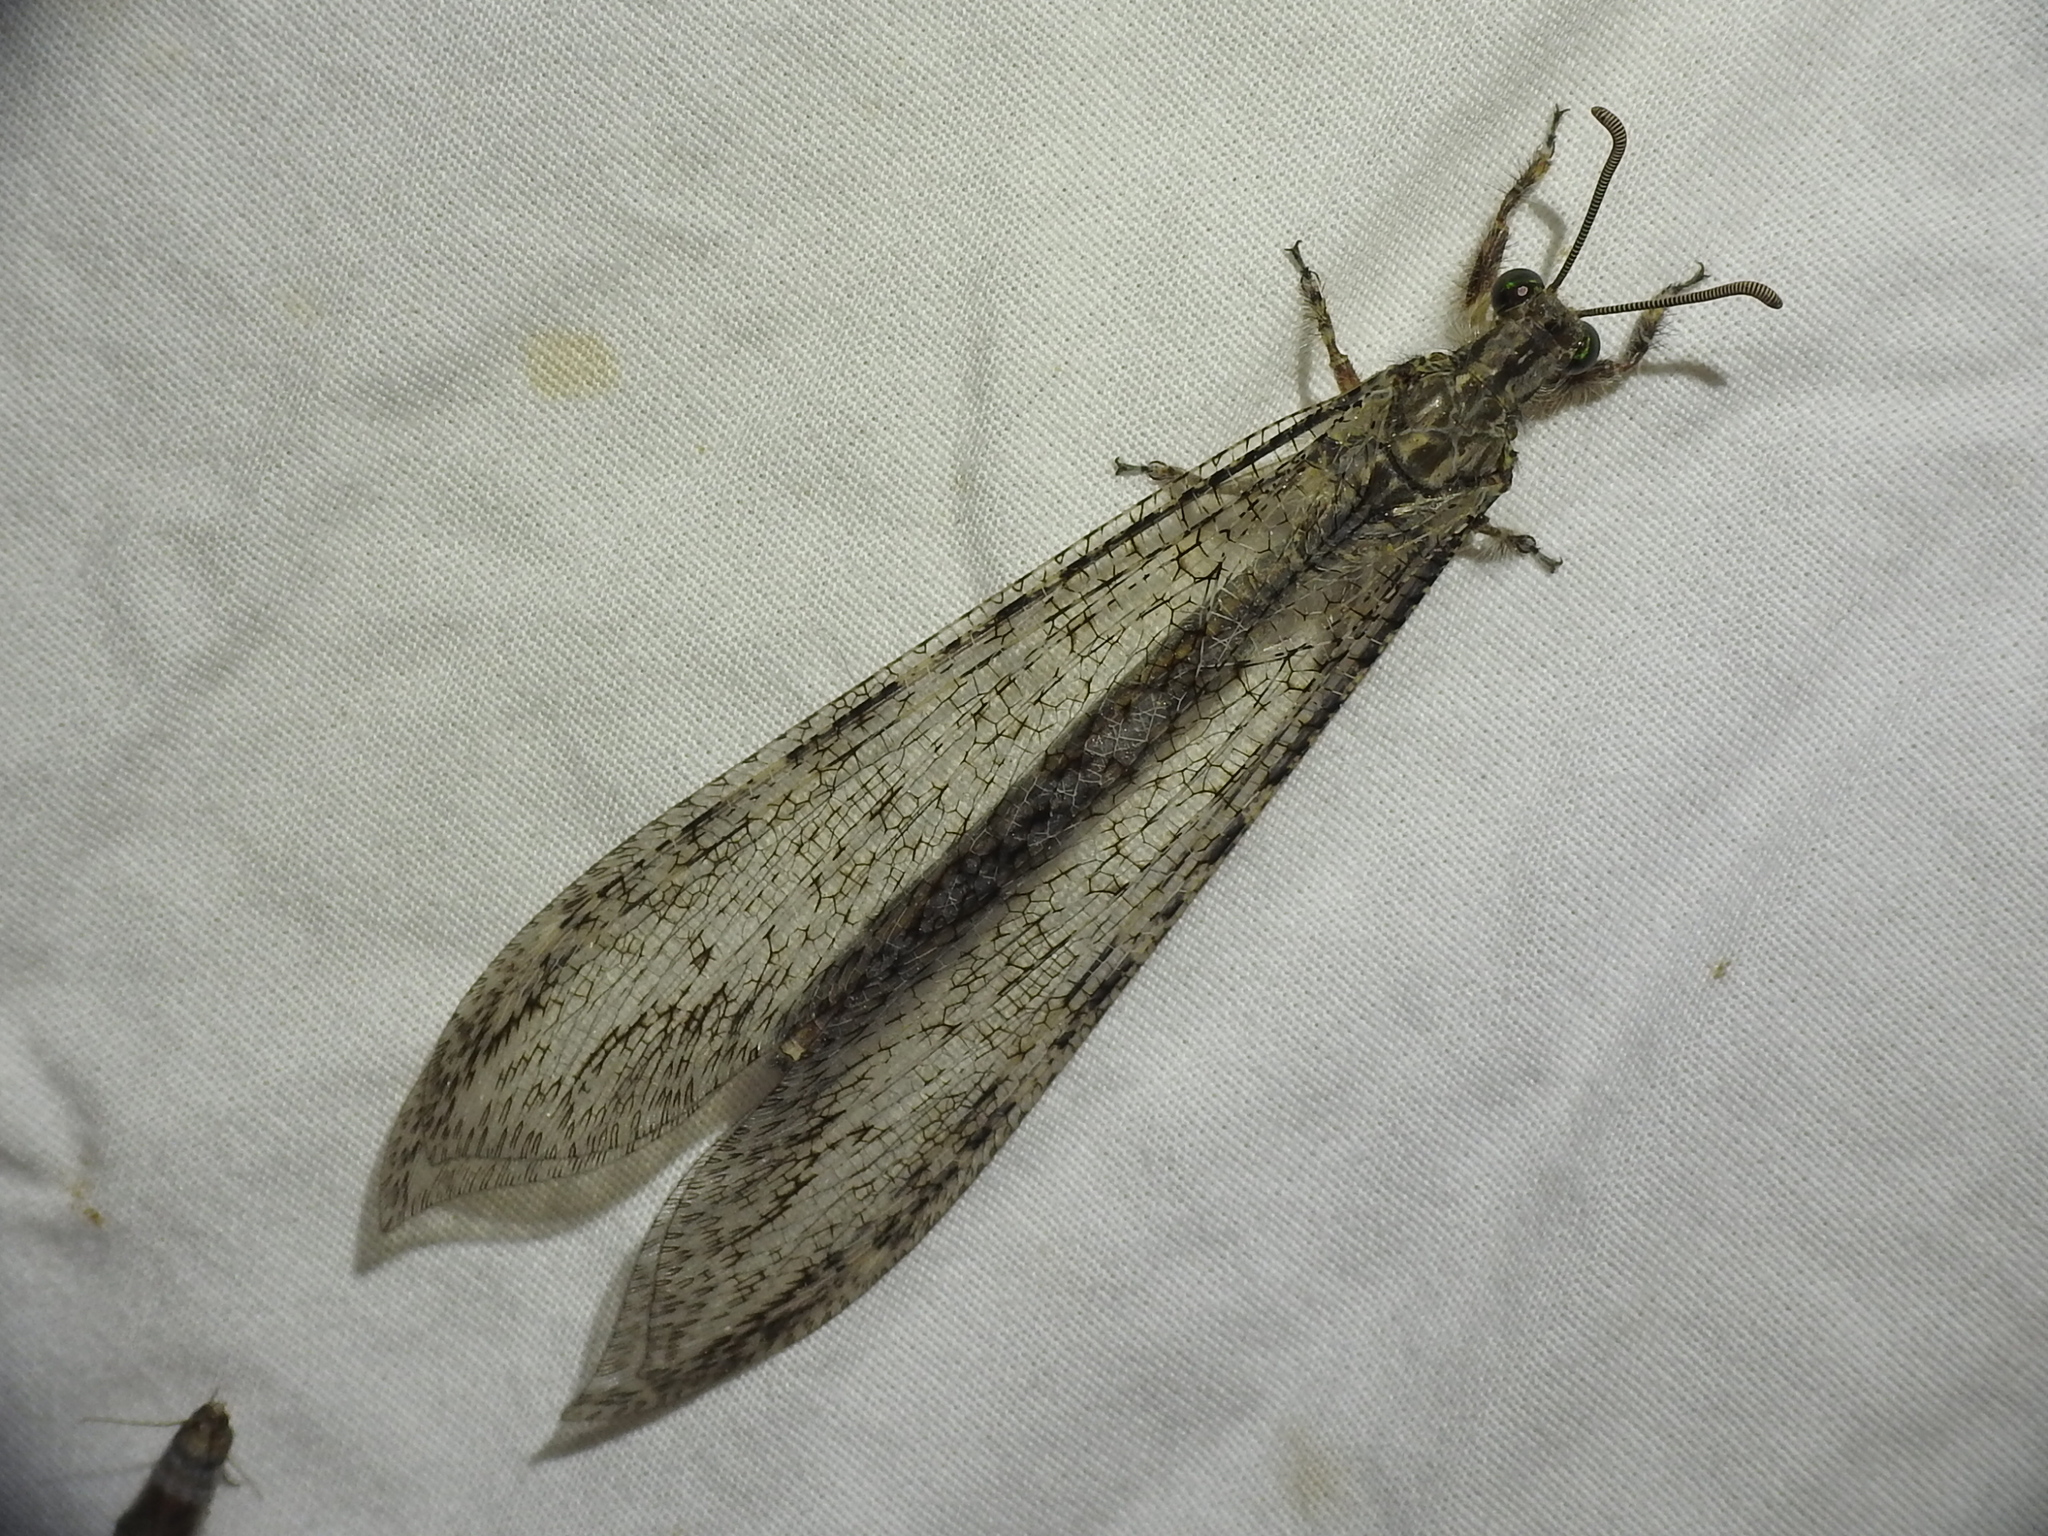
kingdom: Animalia
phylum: Arthropoda
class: Insecta
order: Neuroptera
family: Myrmeleontidae
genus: Vella
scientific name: Vella fallax
